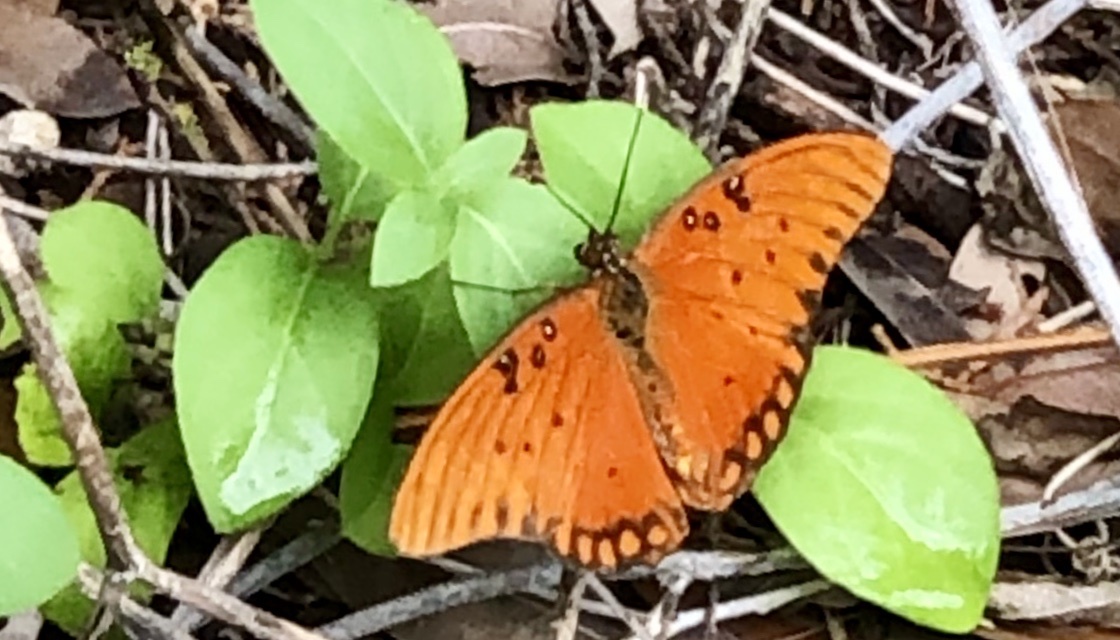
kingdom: Animalia
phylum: Arthropoda
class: Insecta
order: Lepidoptera
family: Nymphalidae
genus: Dione
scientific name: Dione vanillae
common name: Gulf fritillary
